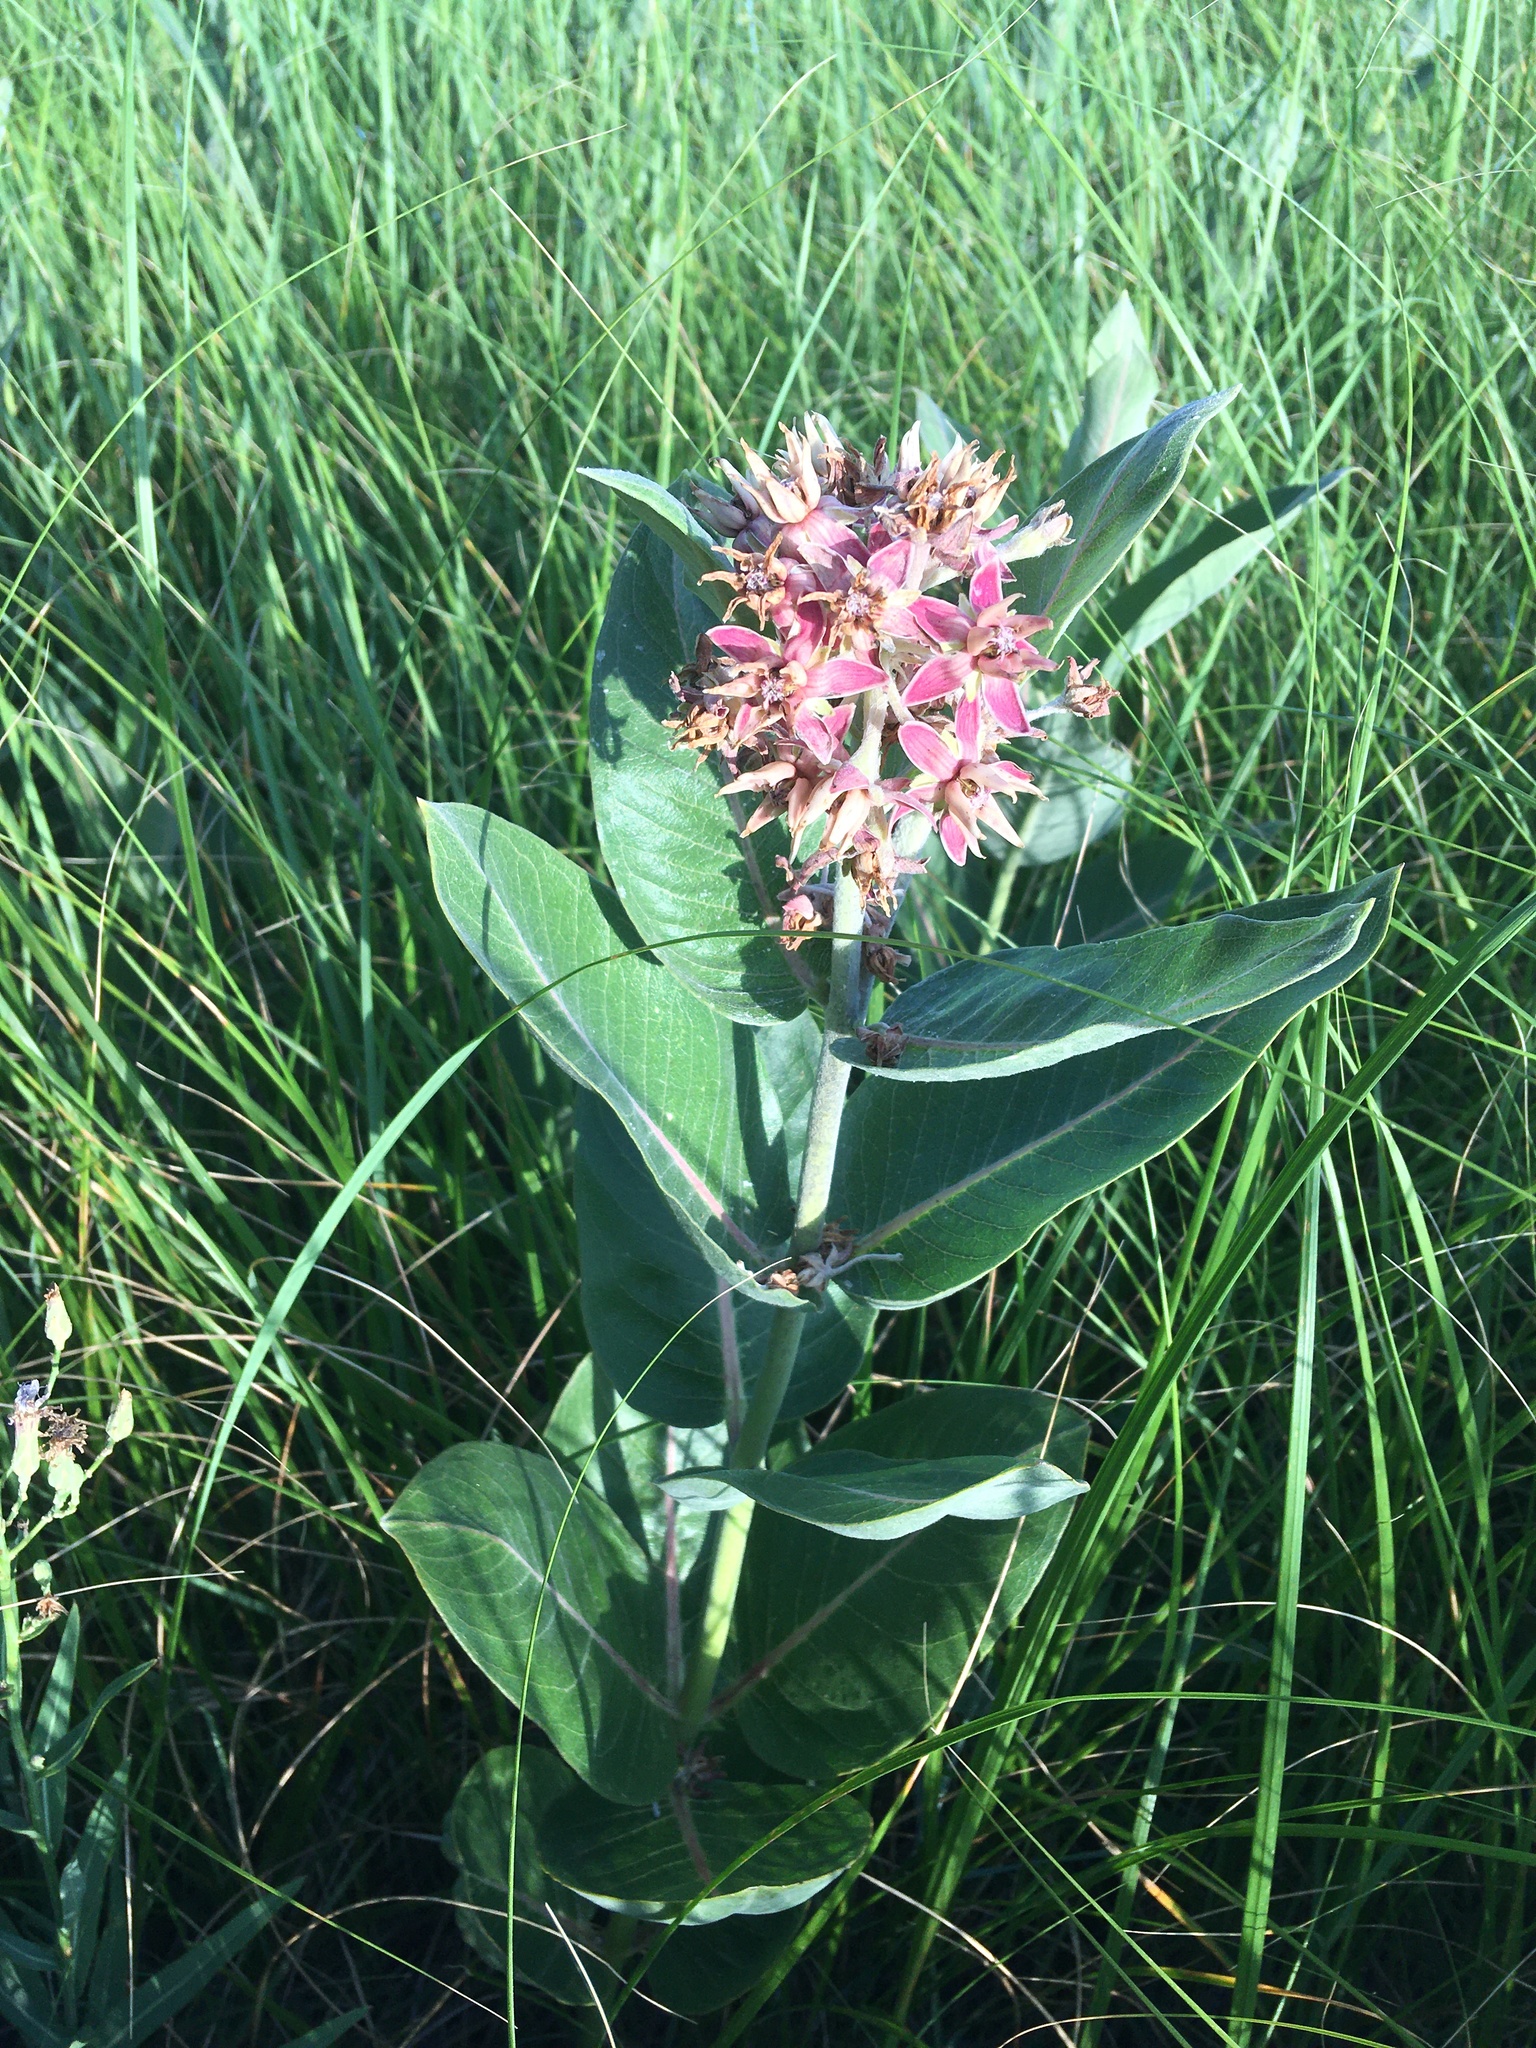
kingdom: Plantae
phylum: Tracheophyta
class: Magnoliopsida
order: Gentianales
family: Apocynaceae
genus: Asclepias
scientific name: Asclepias speciosa
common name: Showy milkweed
